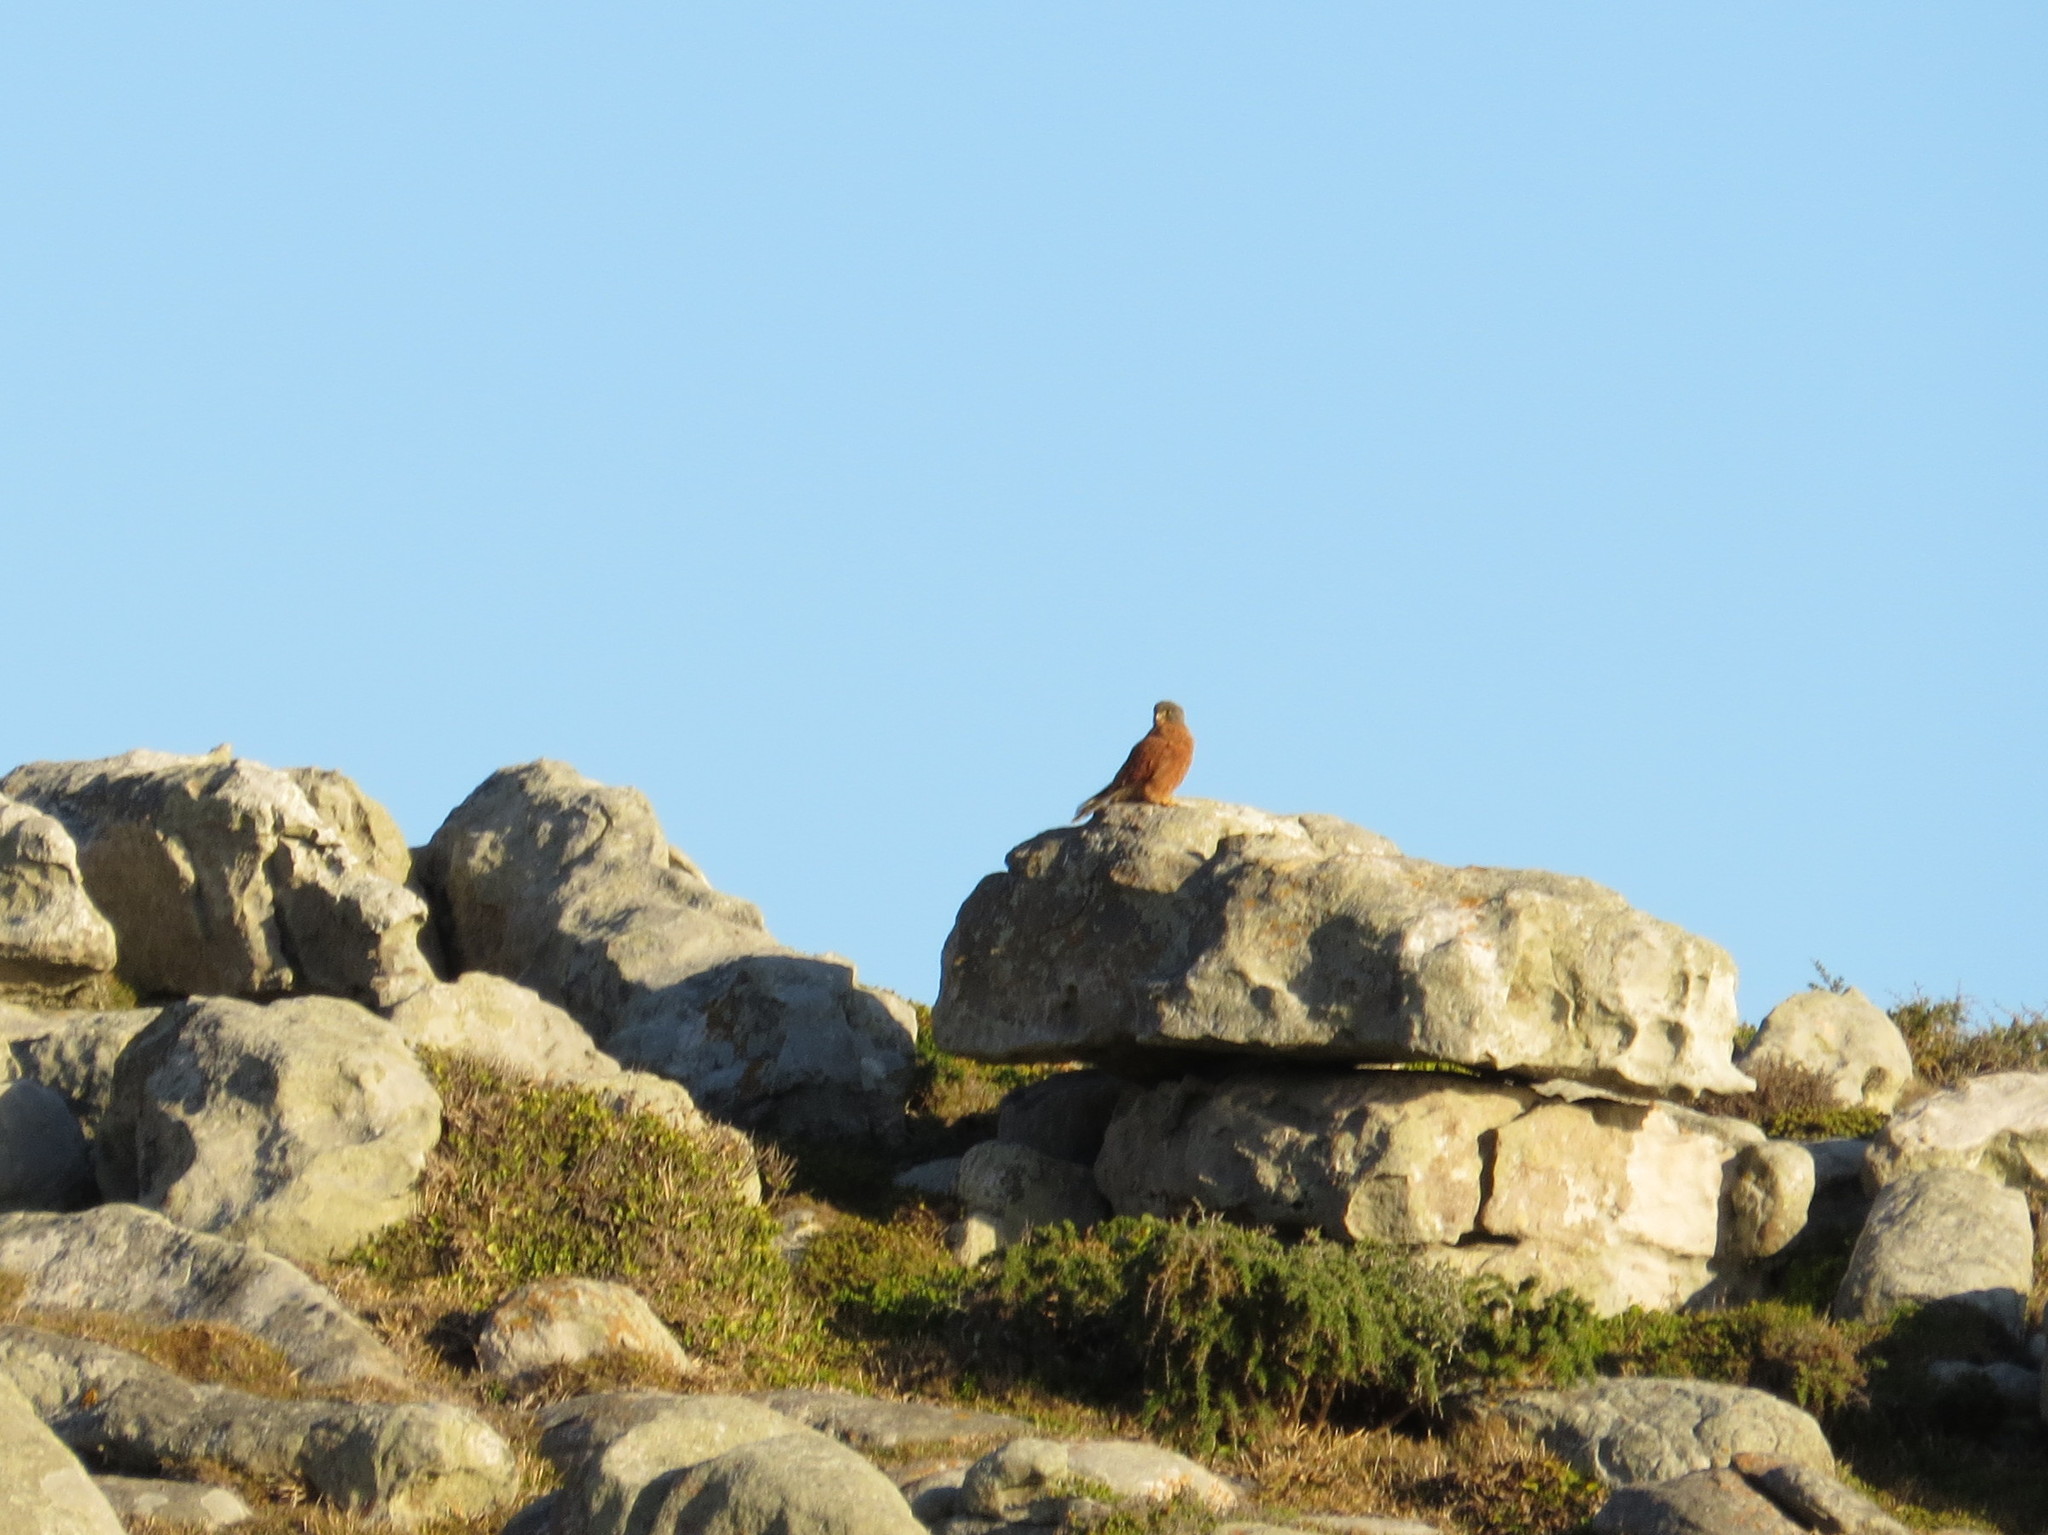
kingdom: Animalia
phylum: Chordata
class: Aves
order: Falconiformes
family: Falconidae
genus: Falco
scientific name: Falco rupicolus
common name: Rock kestrel
